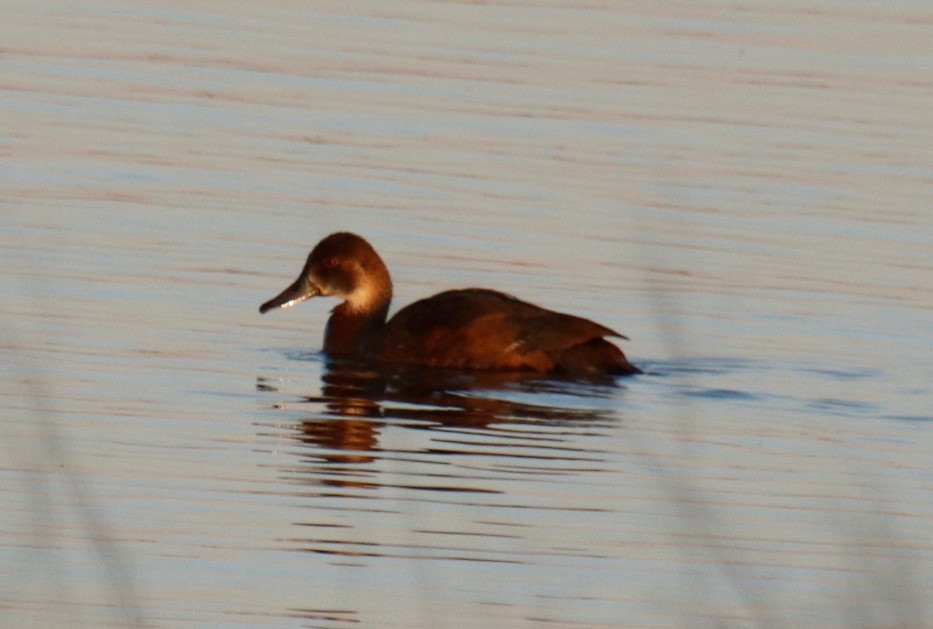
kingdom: Animalia
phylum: Chordata
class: Aves
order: Anseriformes
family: Anatidae
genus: Netta
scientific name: Netta erythrophthalma
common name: Southern pochard
